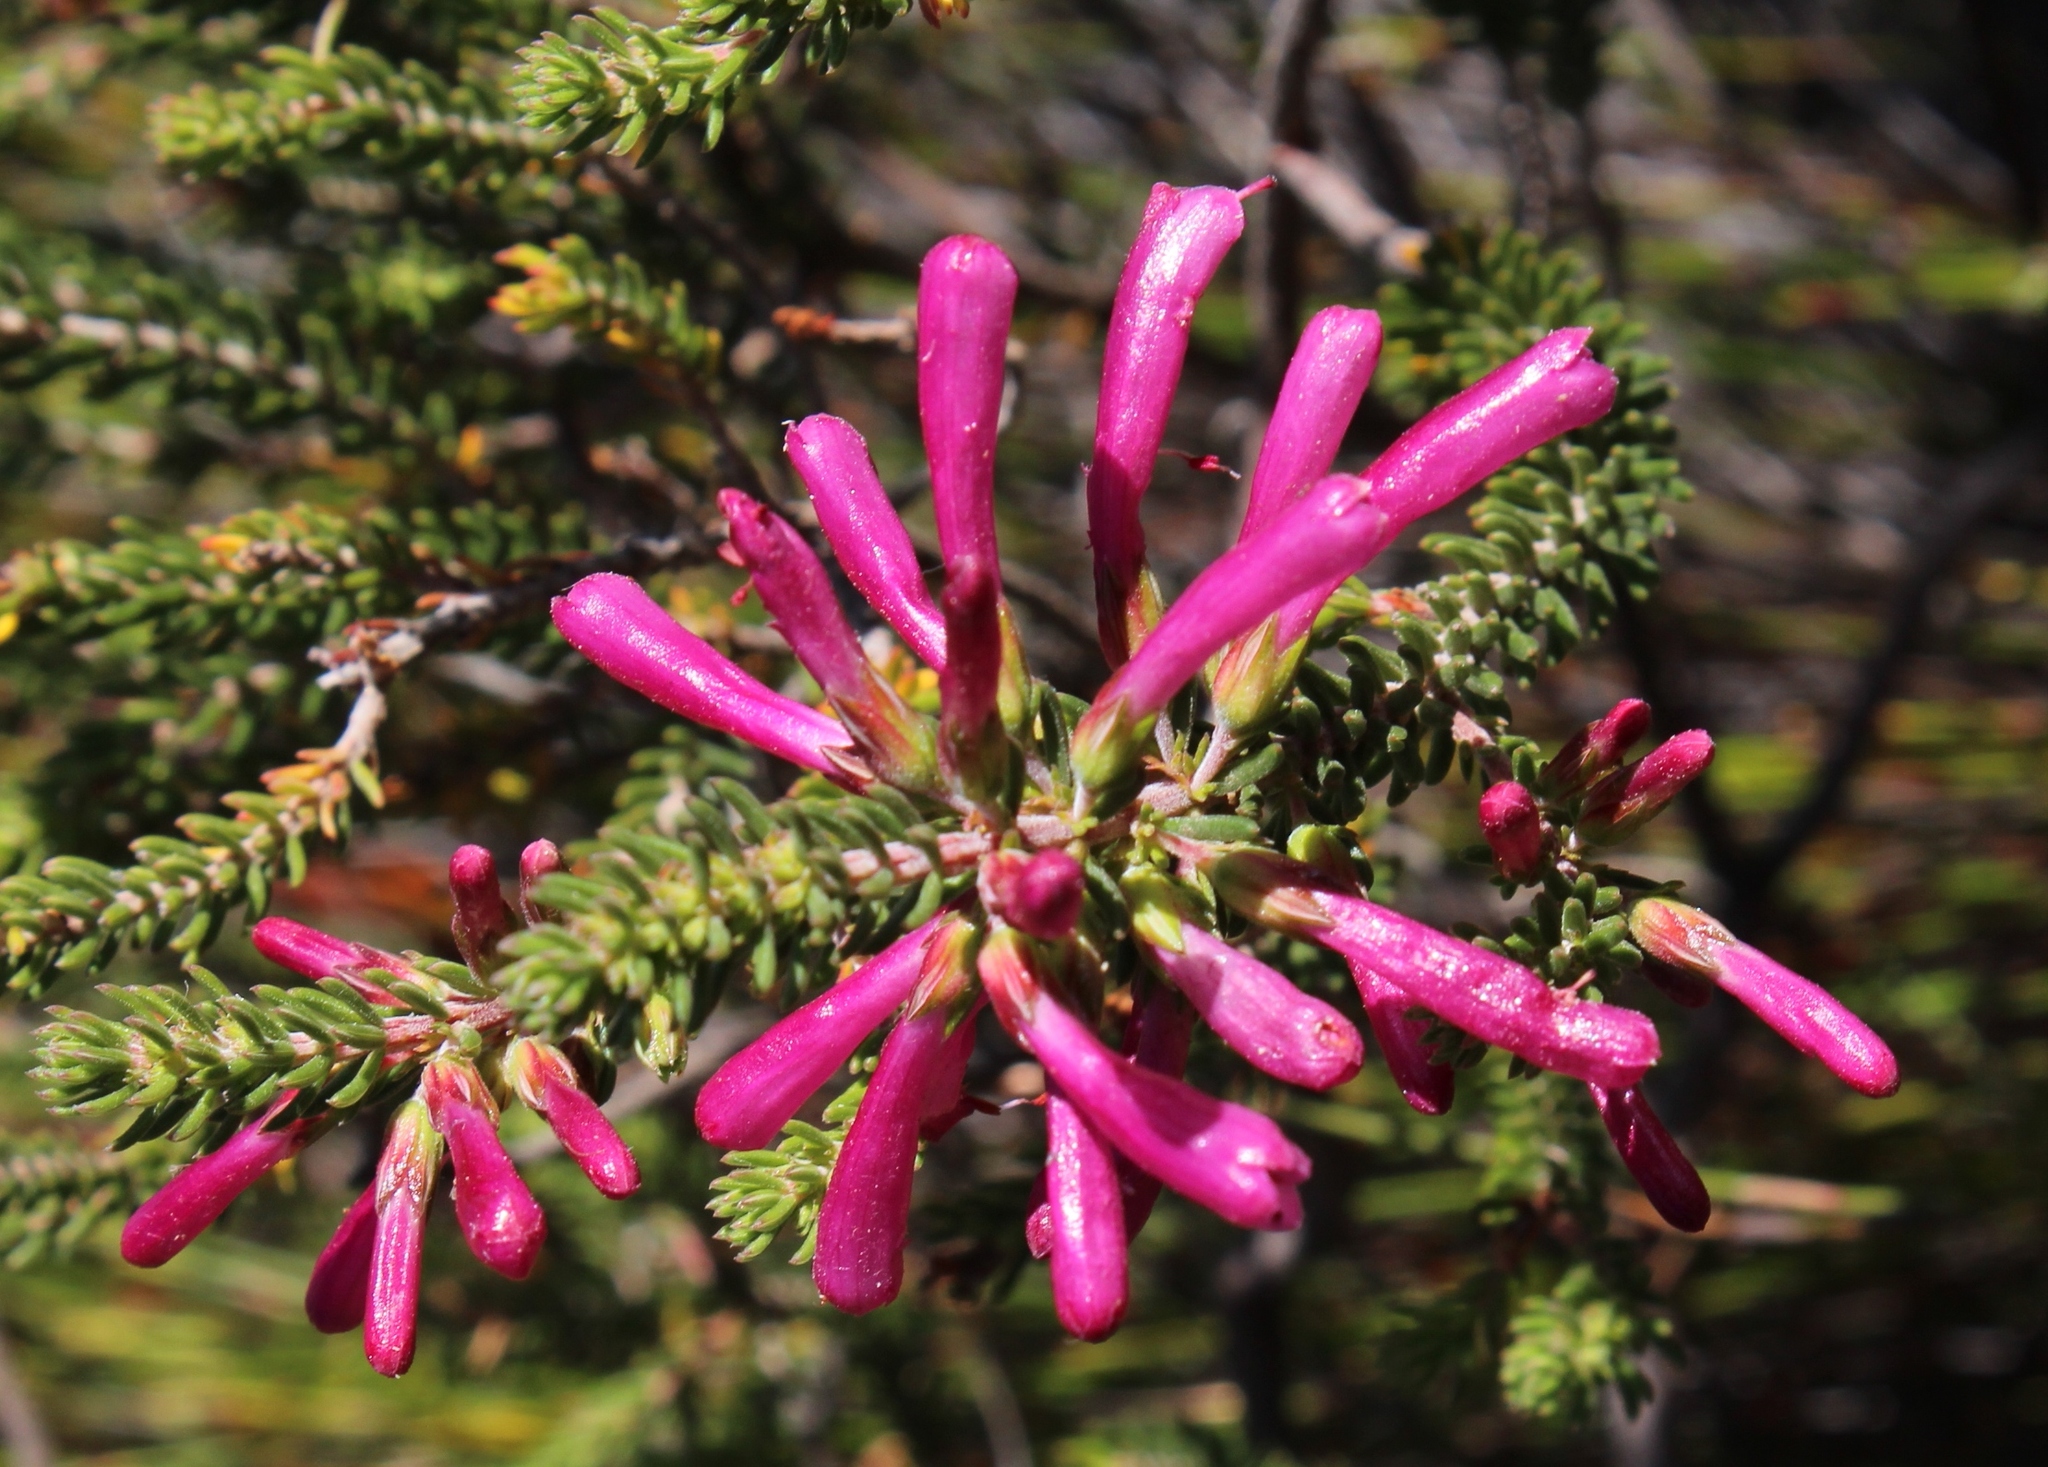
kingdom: Plantae
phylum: Tracheophyta
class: Magnoliopsida
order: Ericales
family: Ericaceae
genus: Erica
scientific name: Erica abietina
